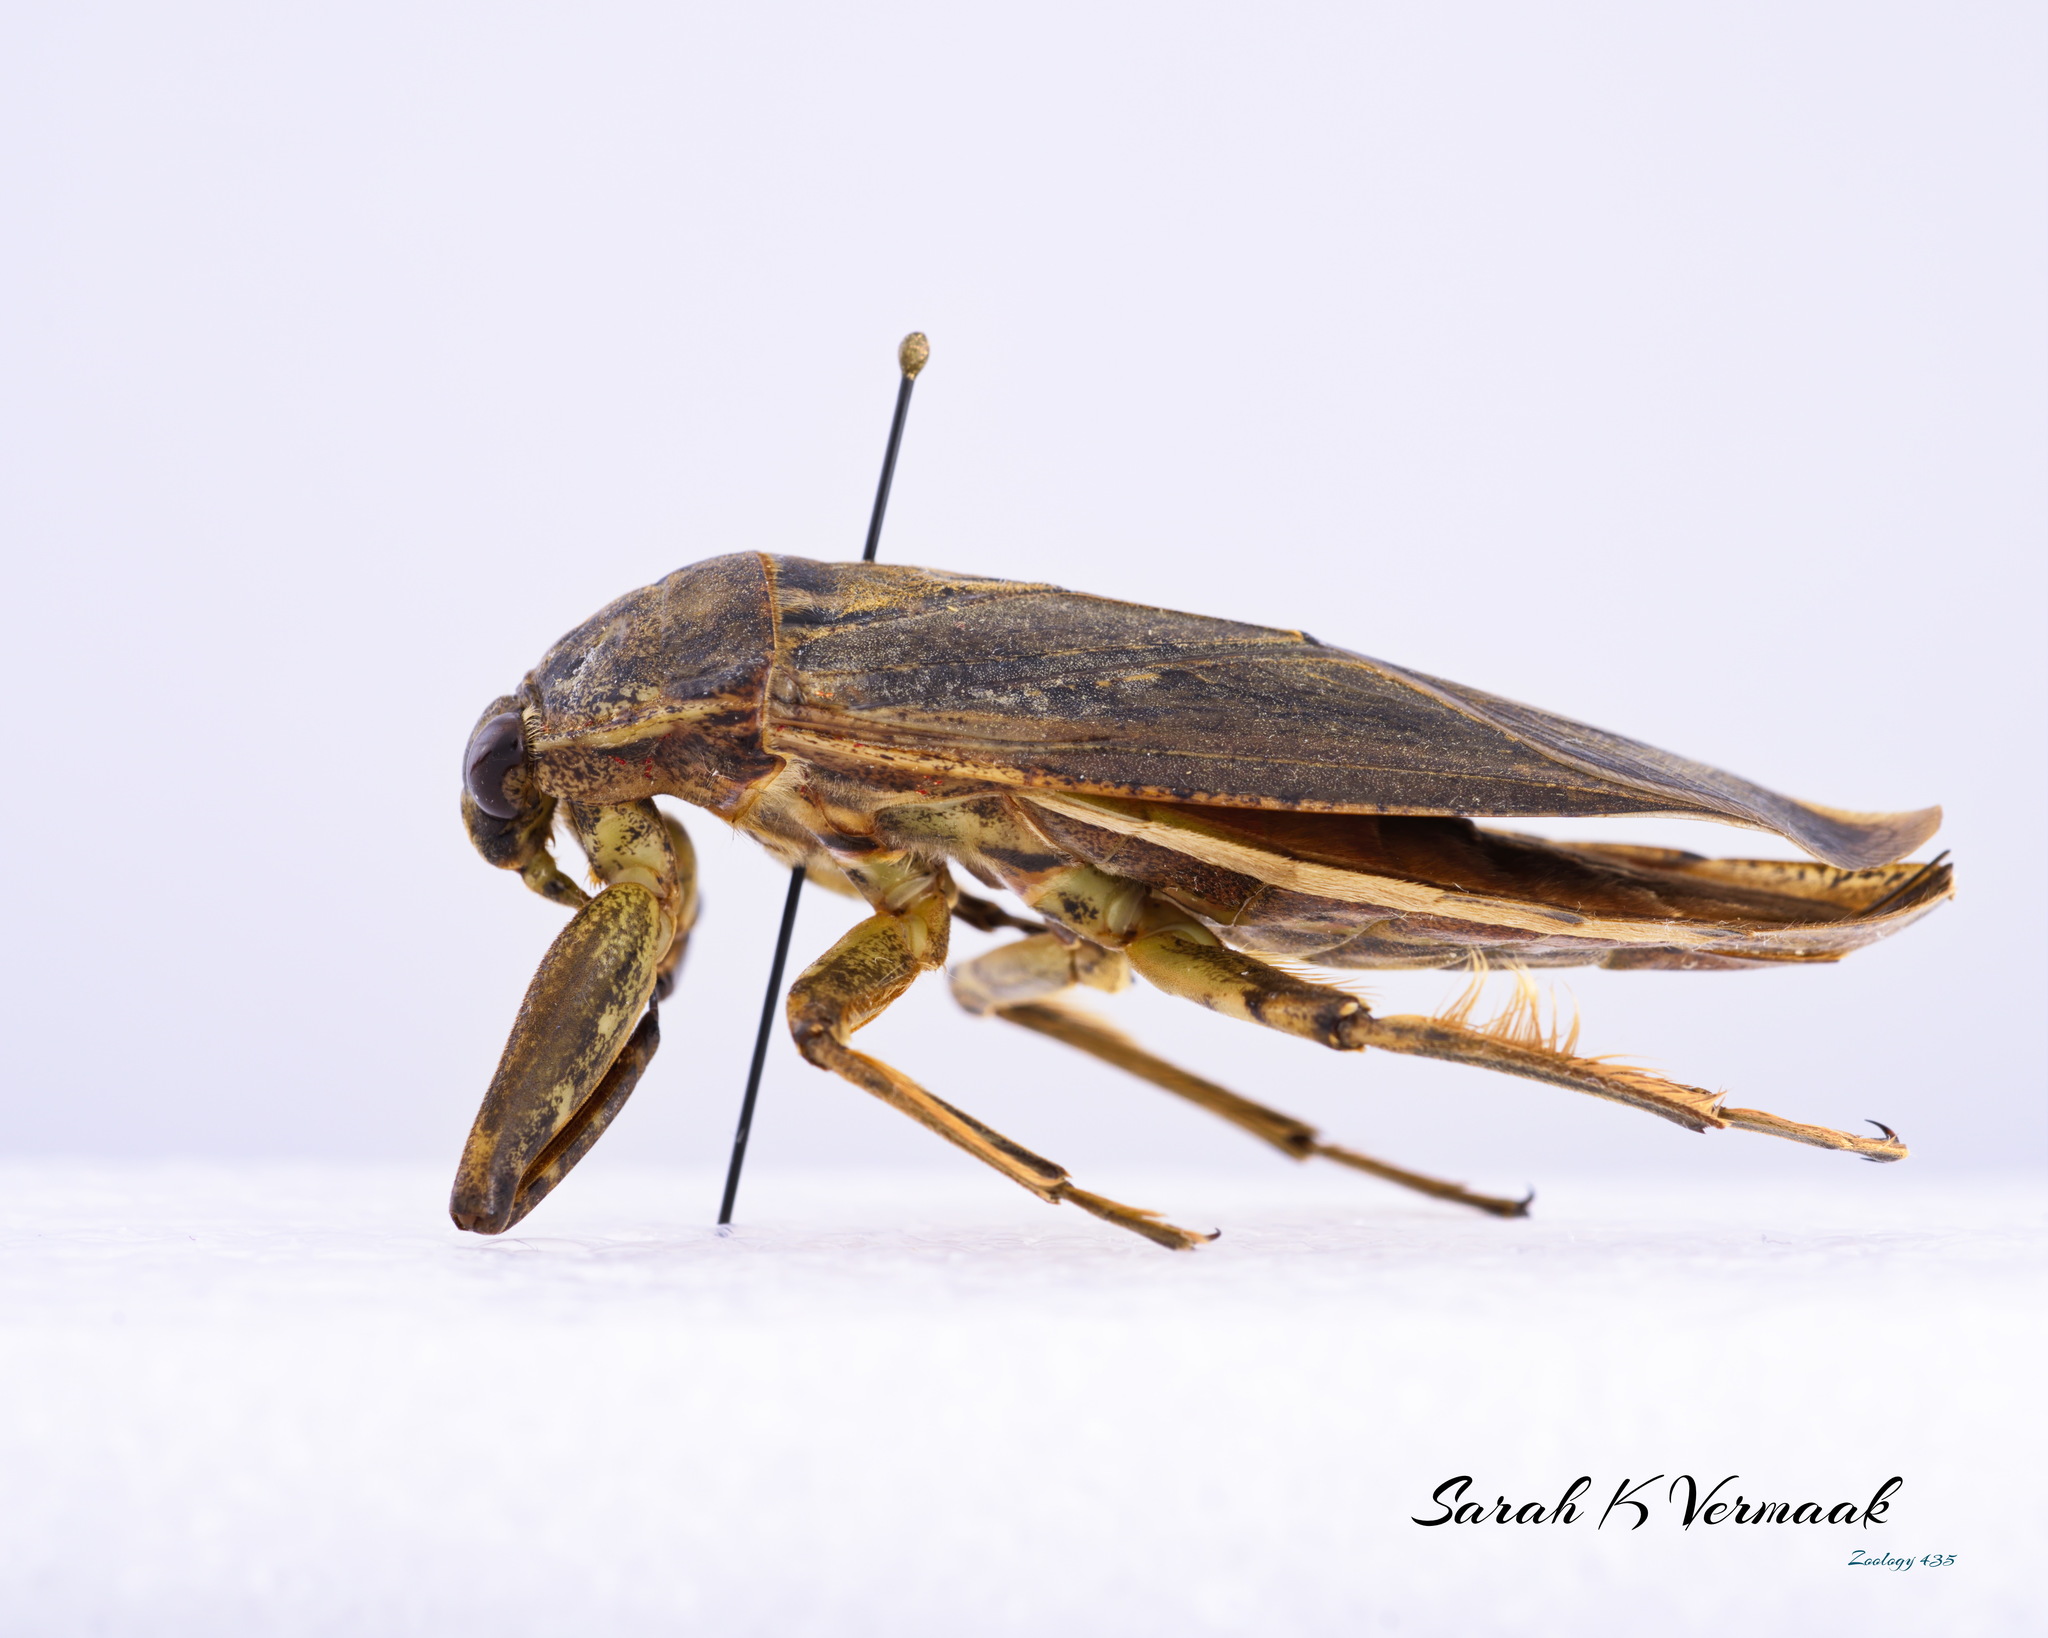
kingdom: Animalia
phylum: Arthropoda
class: Insecta
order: Hemiptera
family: Belostomatidae
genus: Lethocerus
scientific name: Lethocerus americanus
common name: Giant water bug
